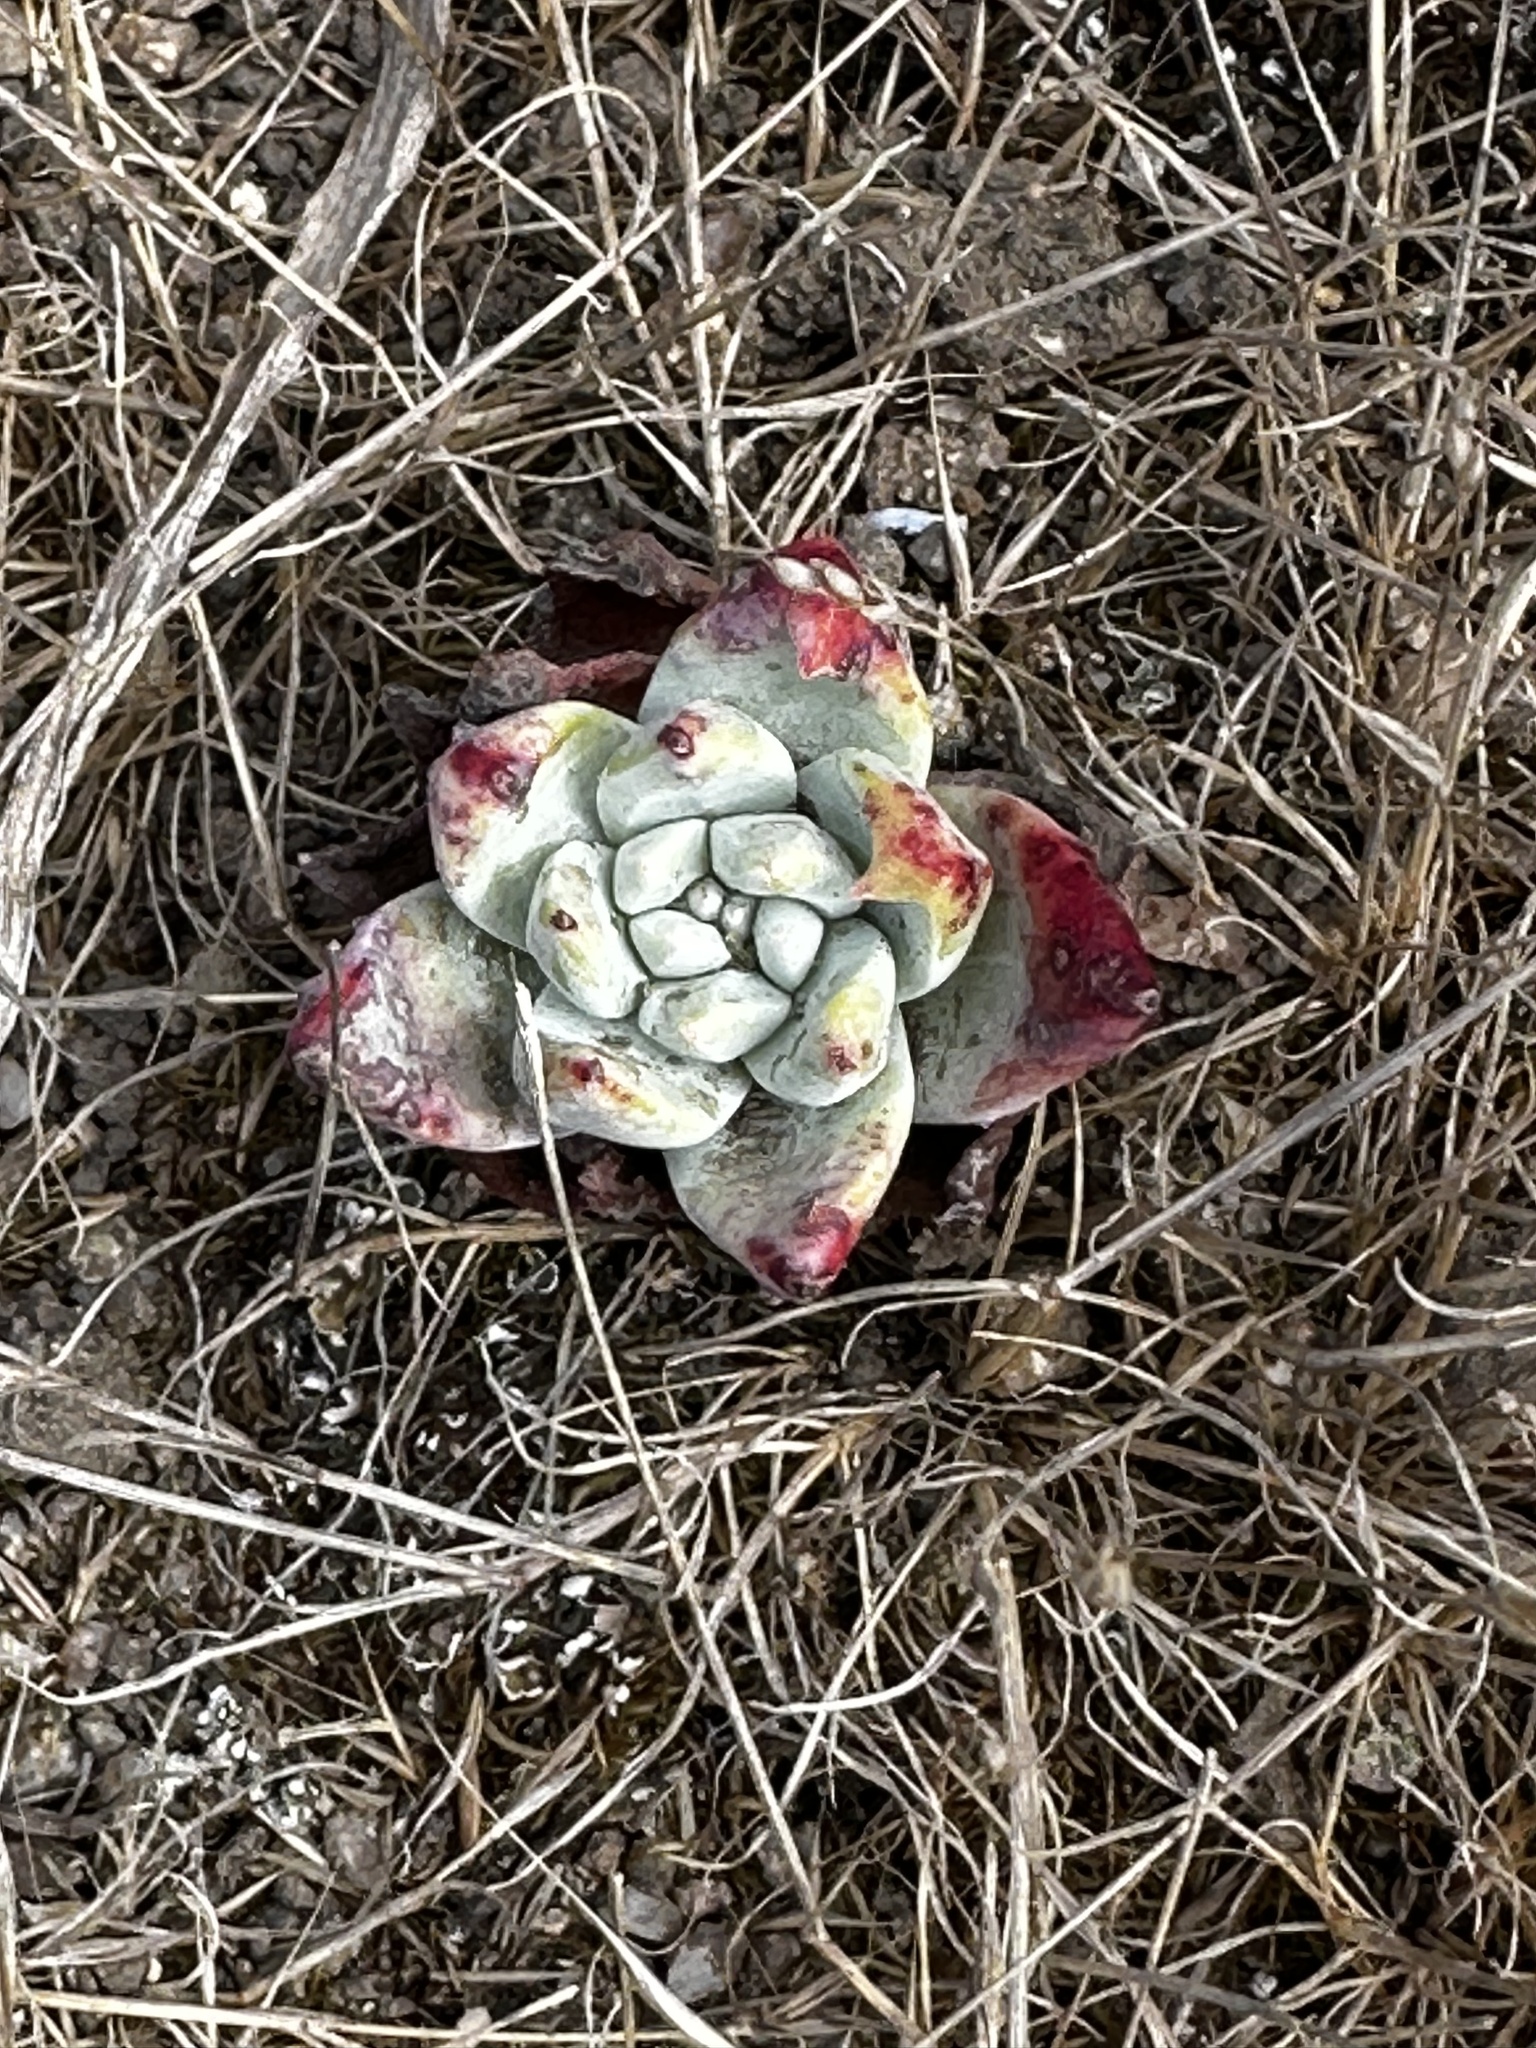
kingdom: Plantae
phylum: Tracheophyta
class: Magnoliopsida
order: Saxifragales
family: Crassulaceae
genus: Dudleya
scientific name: Dudleya farinosa
